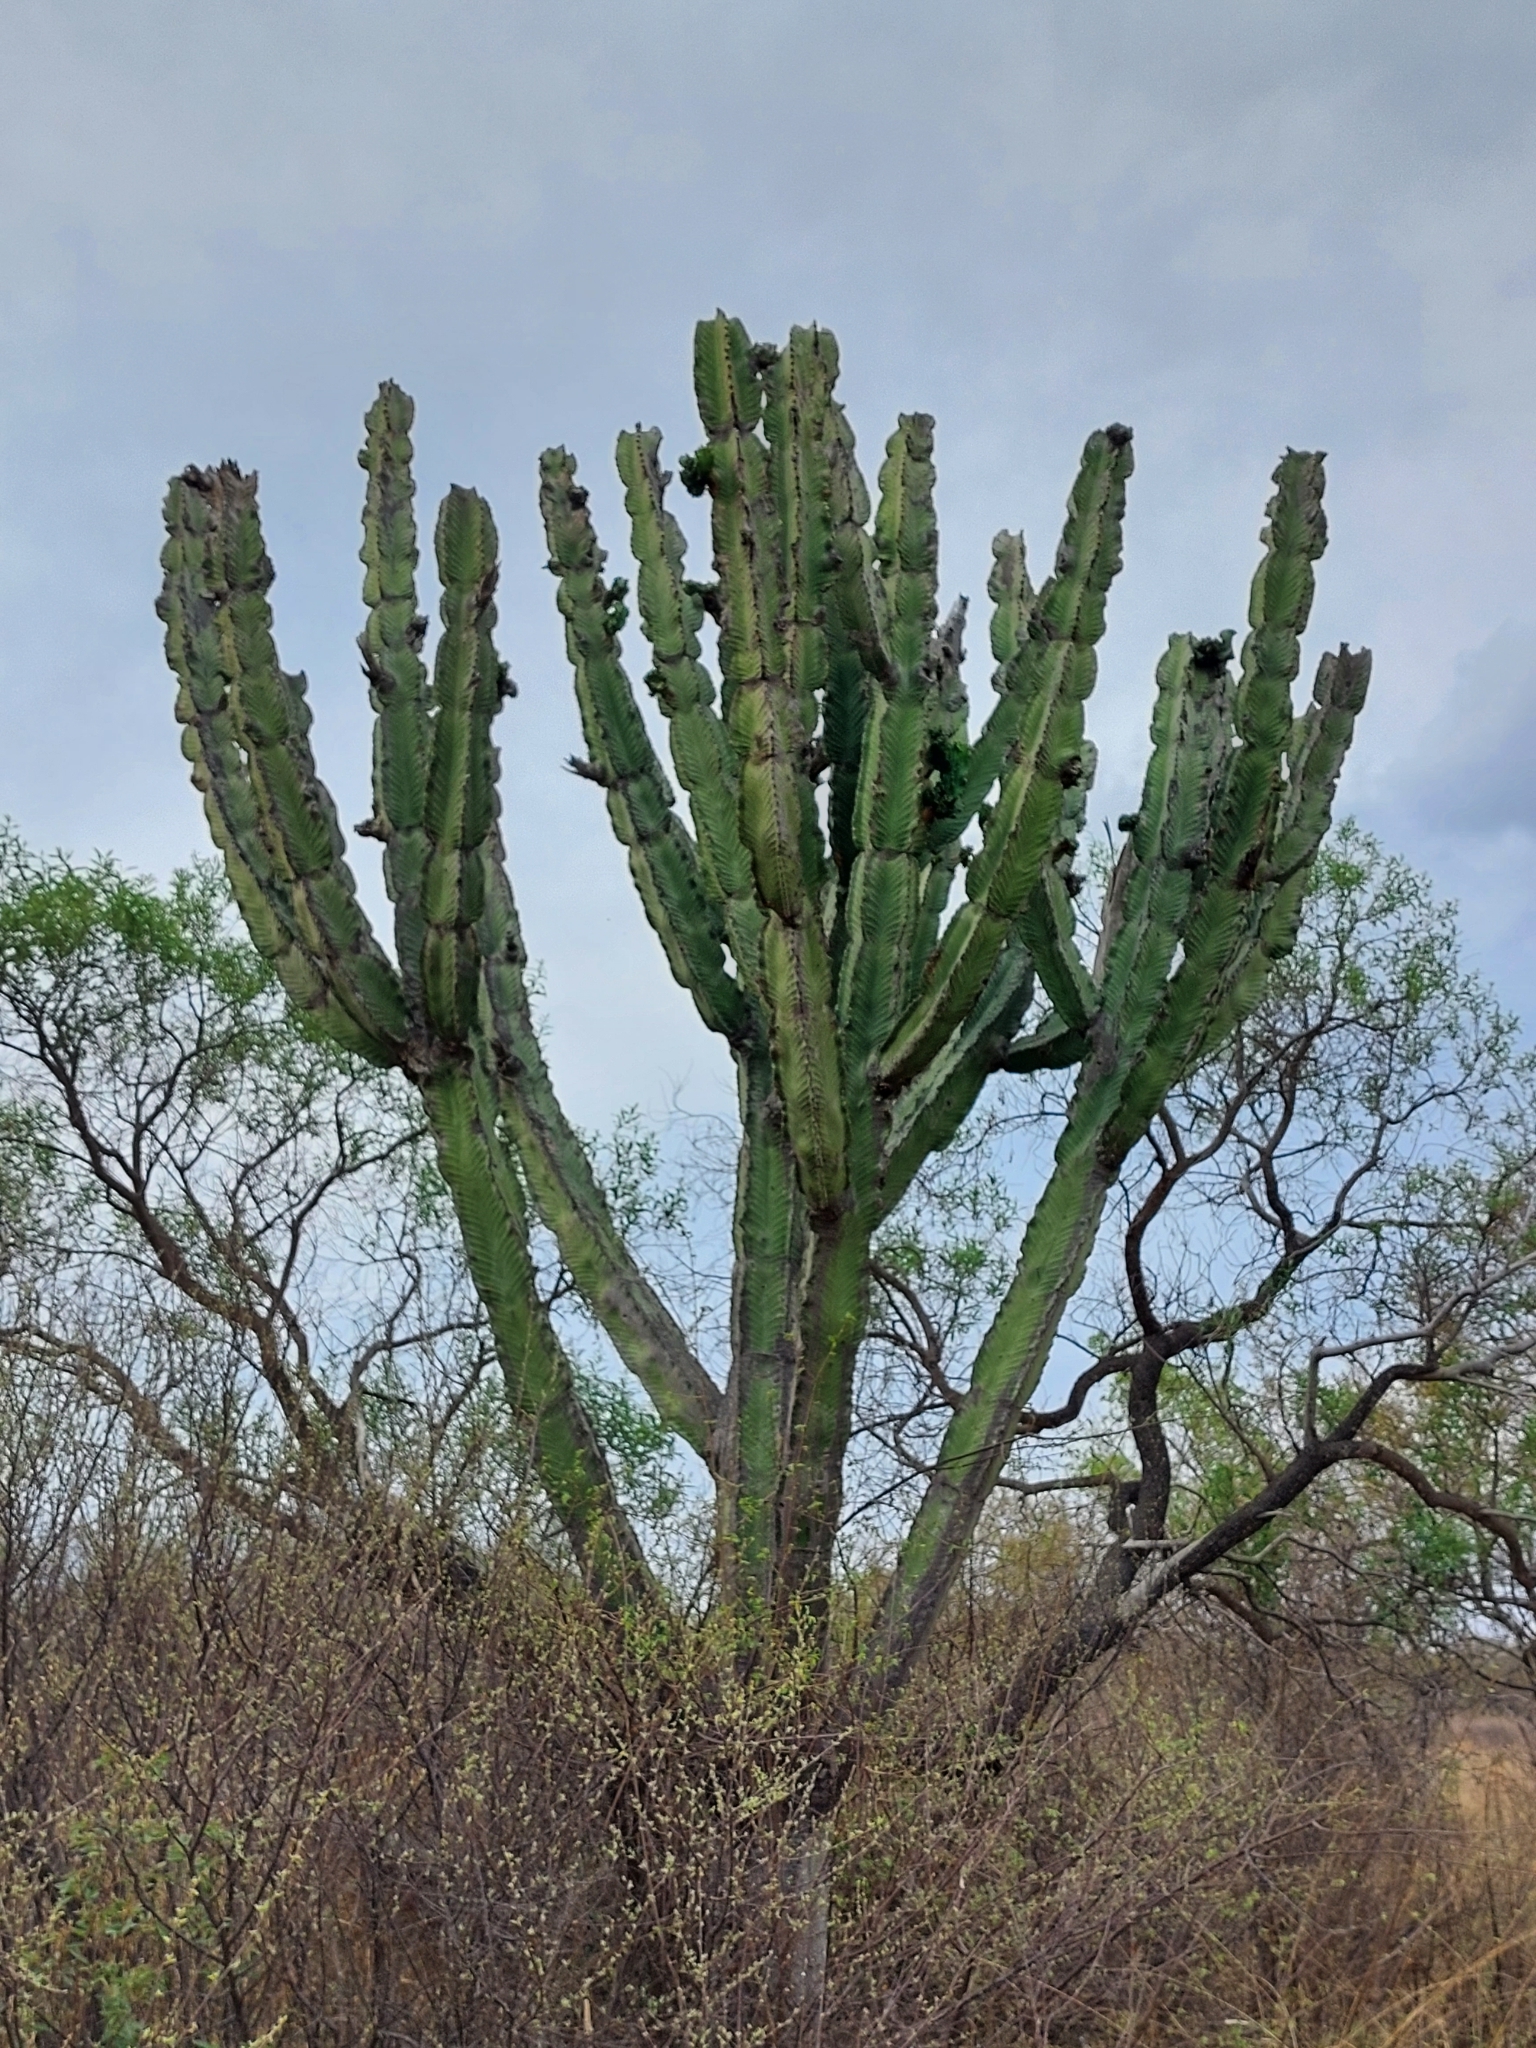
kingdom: Plantae
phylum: Tracheophyta
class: Magnoliopsida
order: Malpighiales
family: Euphorbiaceae
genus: Euphorbia
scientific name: Euphorbia ingens
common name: Cactus spurge
